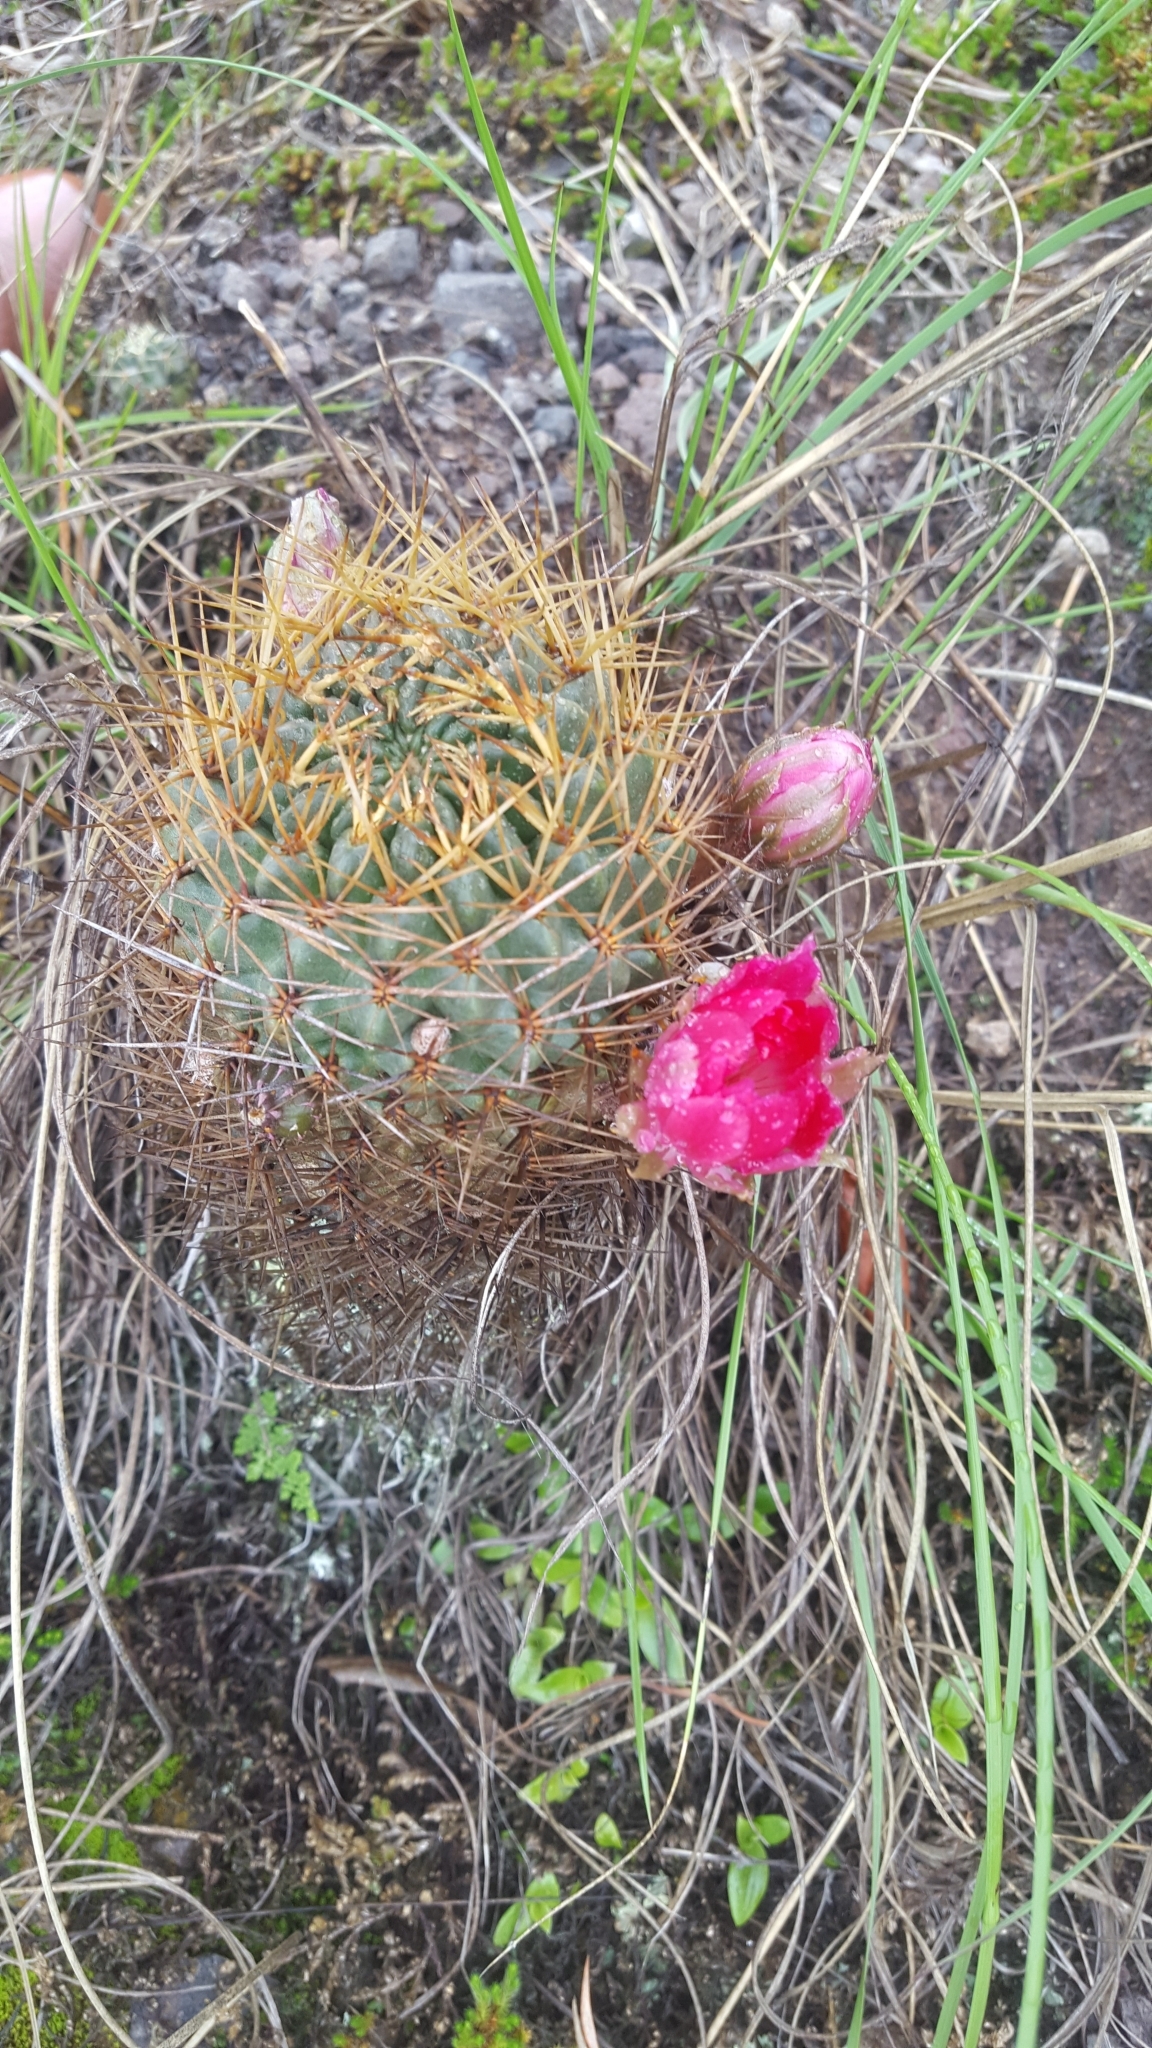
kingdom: Plantae
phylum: Tracheophyta
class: Magnoliopsida
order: Caryophyllales
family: Cactaceae
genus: Lobivia
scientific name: Lobivia backebergii
